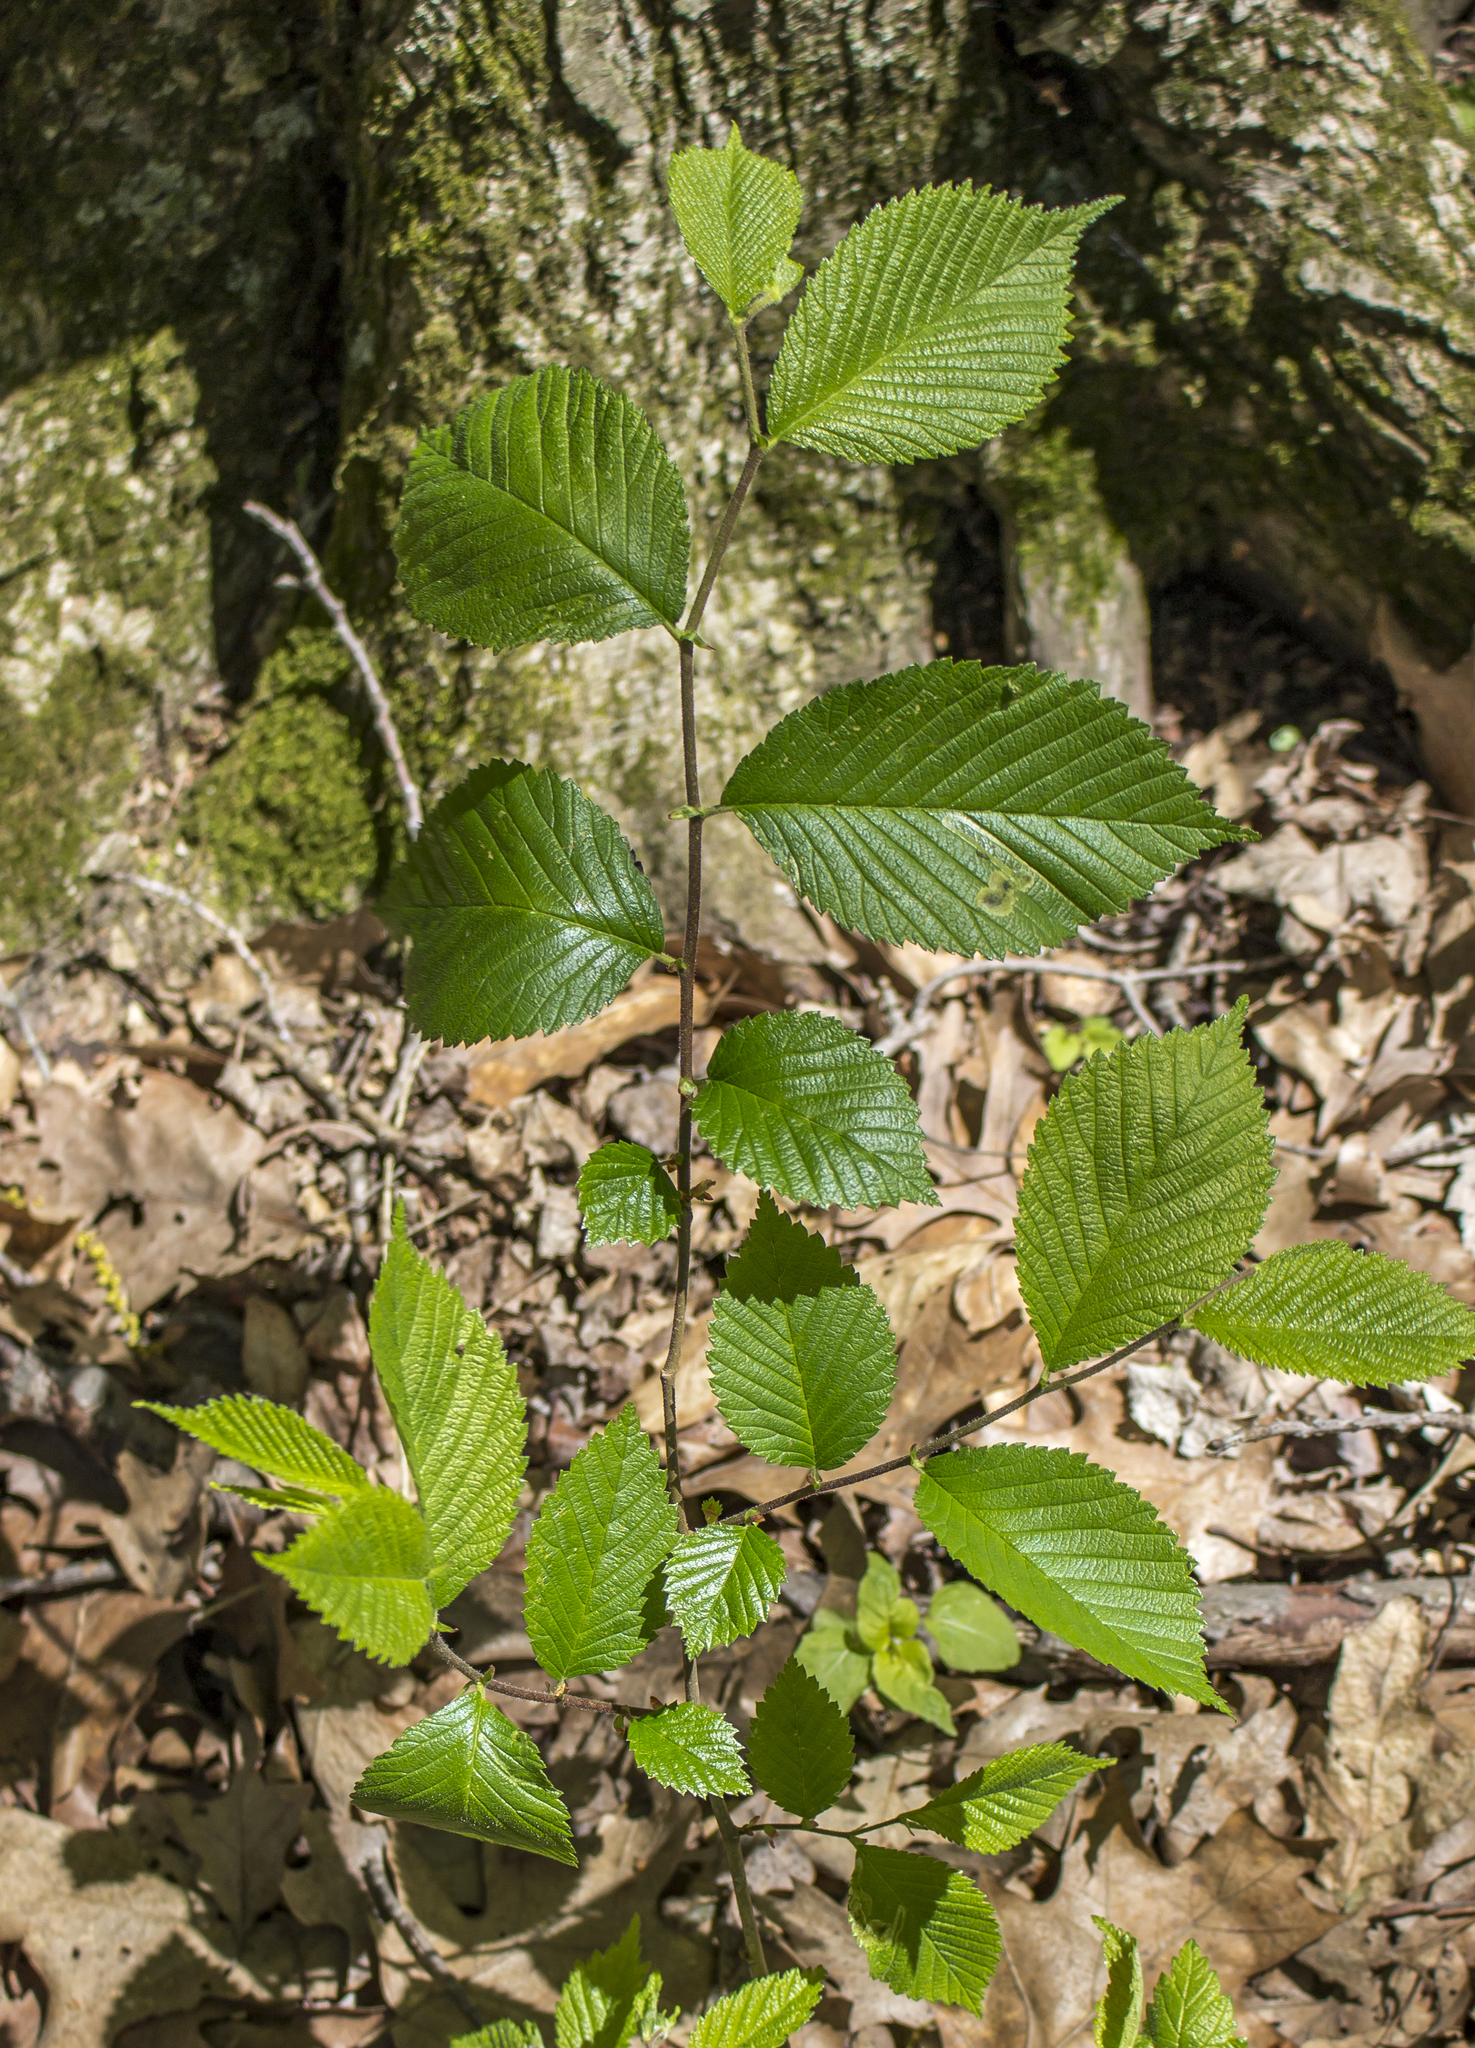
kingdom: Plantae
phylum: Tracheophyta
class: Magnoliopsida
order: Rosales
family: Ulmaceae
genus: Ulmus
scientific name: Ulmus rubra
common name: Slippery elm
